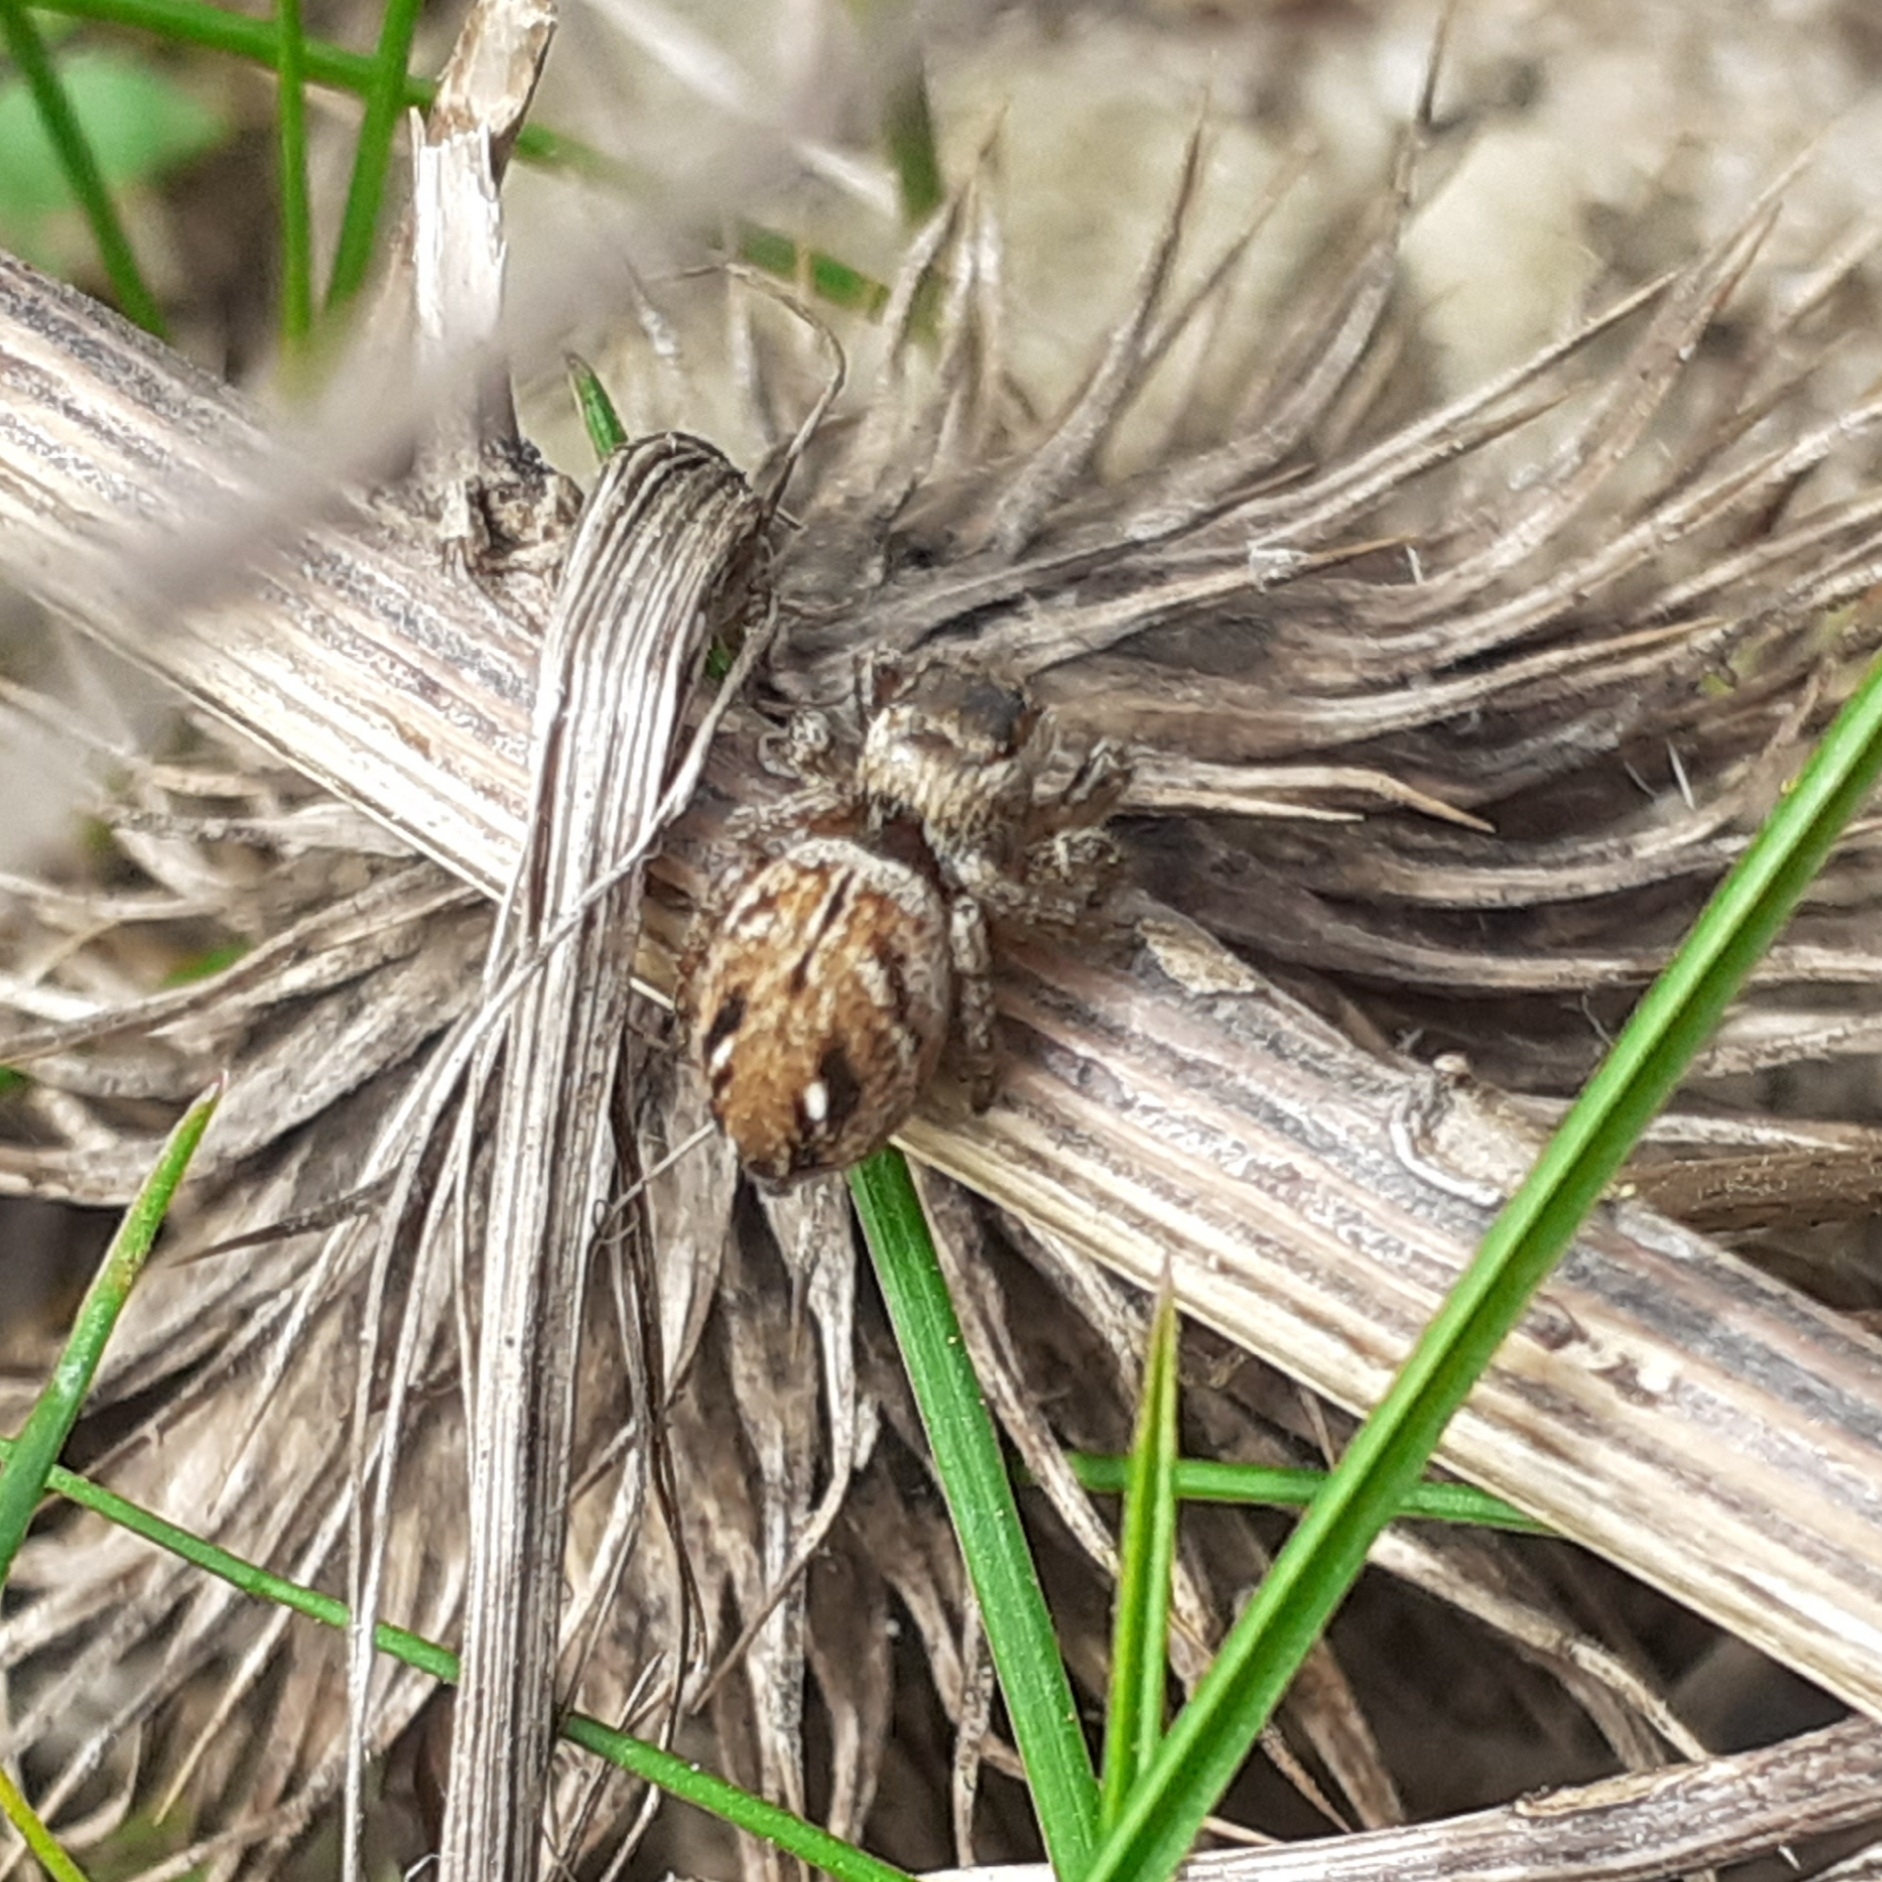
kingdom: Animalia
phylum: Arthropoda
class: Arachnida
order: Araneae
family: Salticidae
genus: Evarcha
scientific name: Evarcha arcuata
